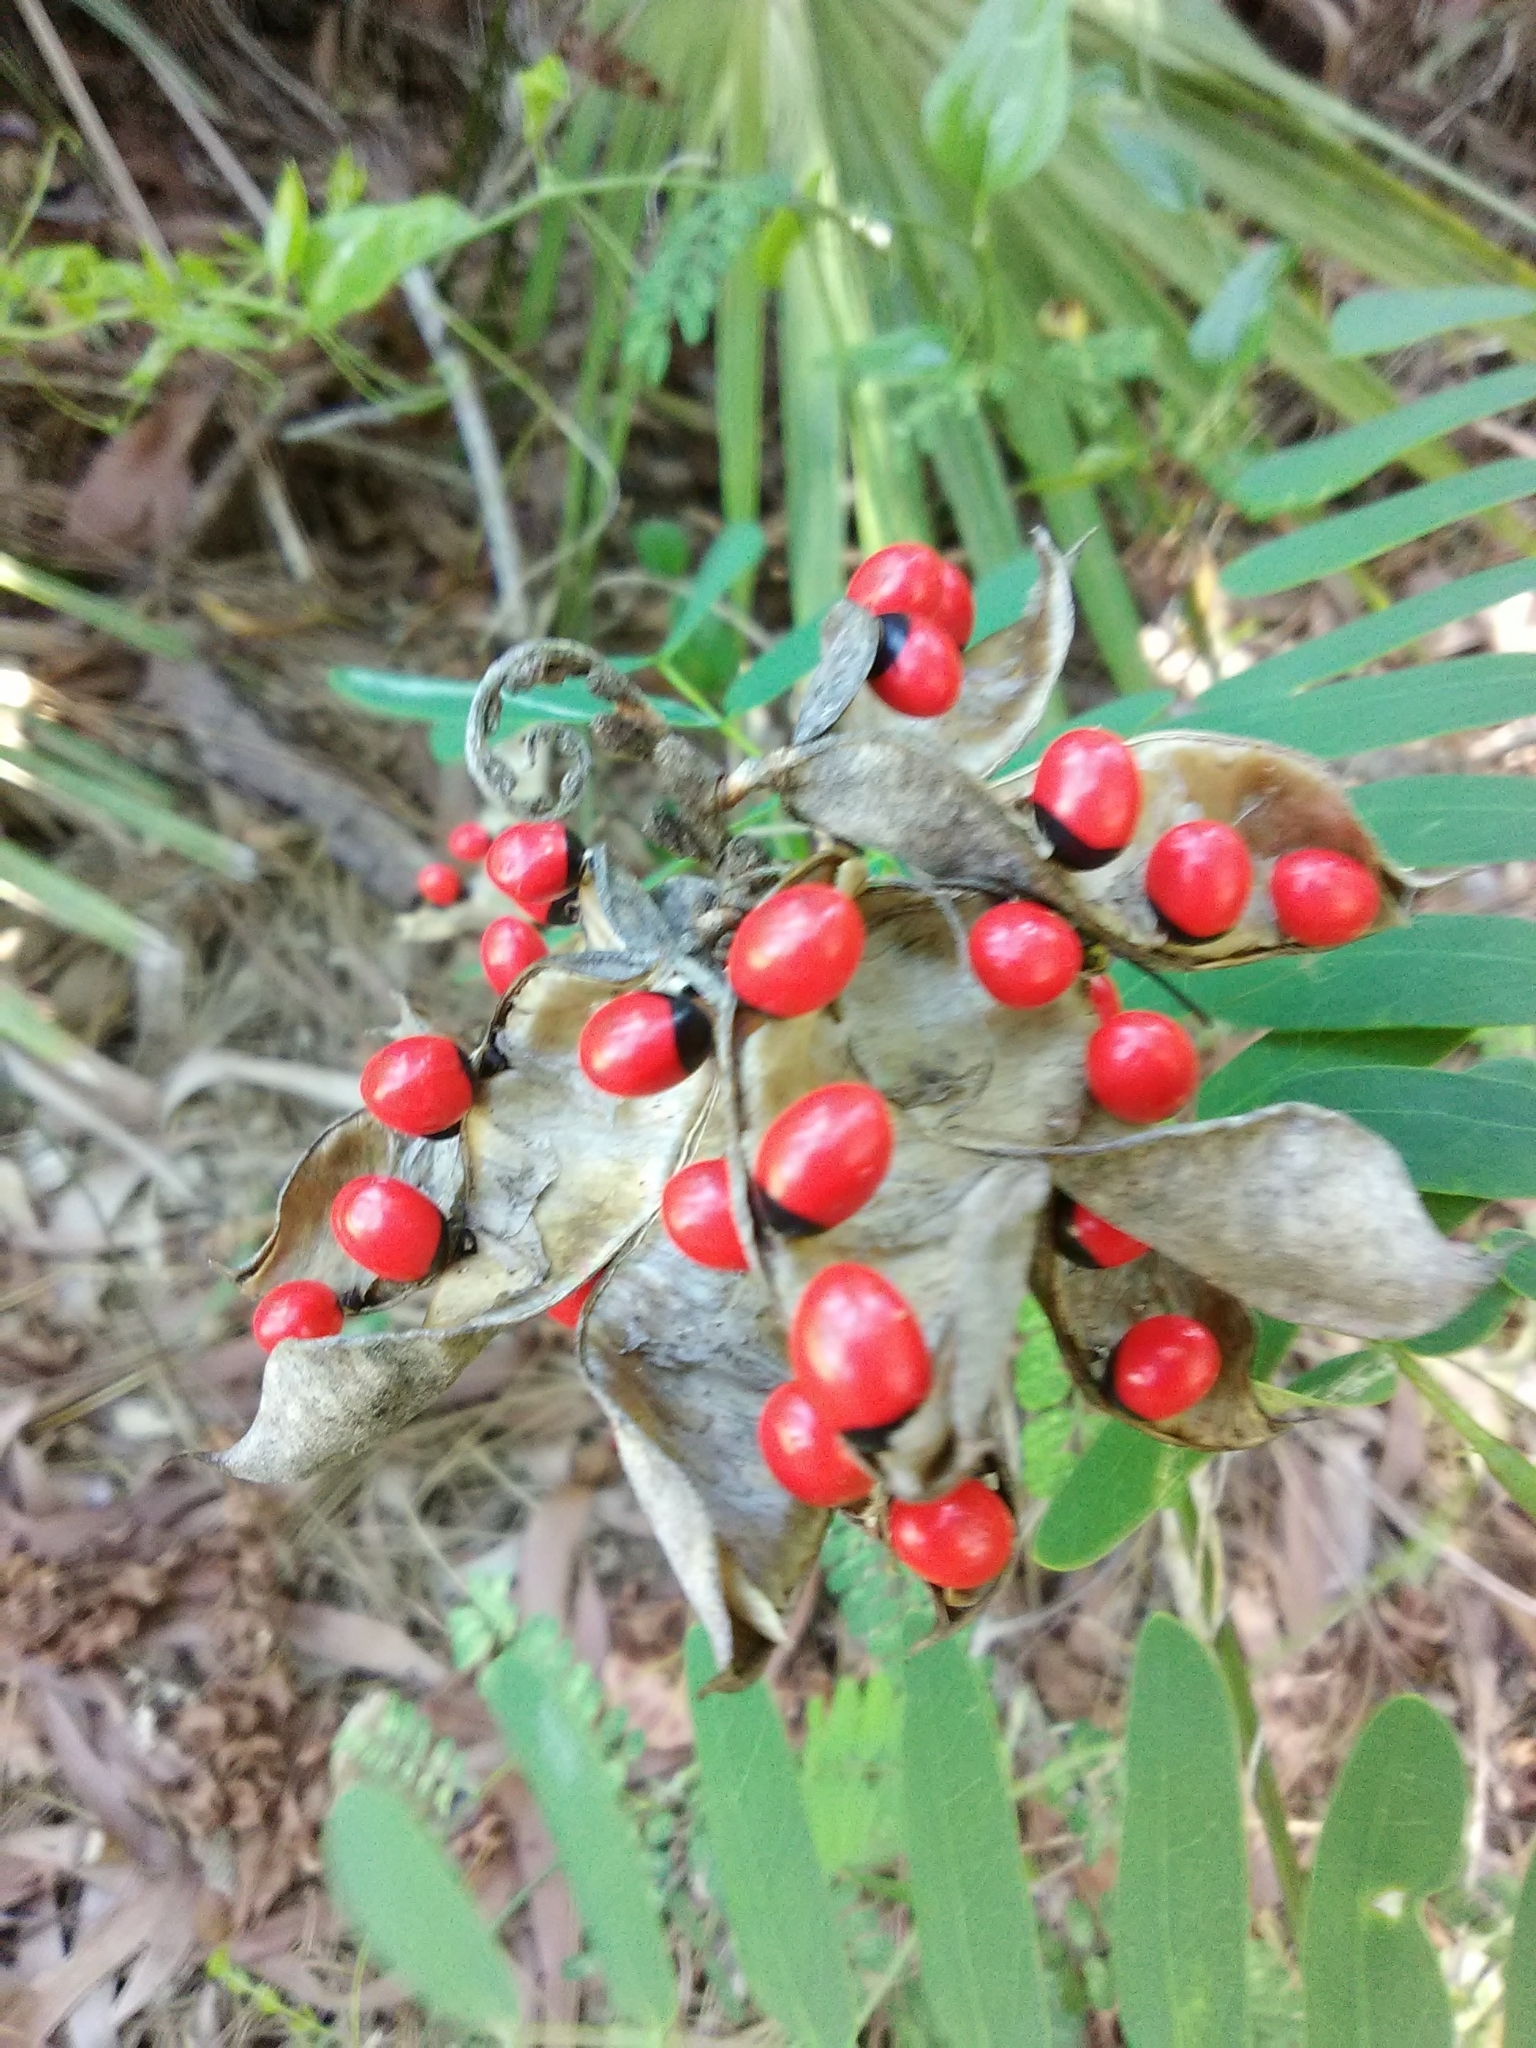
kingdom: Plantae
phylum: Tracheophyta
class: Magnoliopsida
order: Fabales
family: Fabaceae
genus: Abrus
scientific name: Abrus precatorius
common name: Rosarypea
